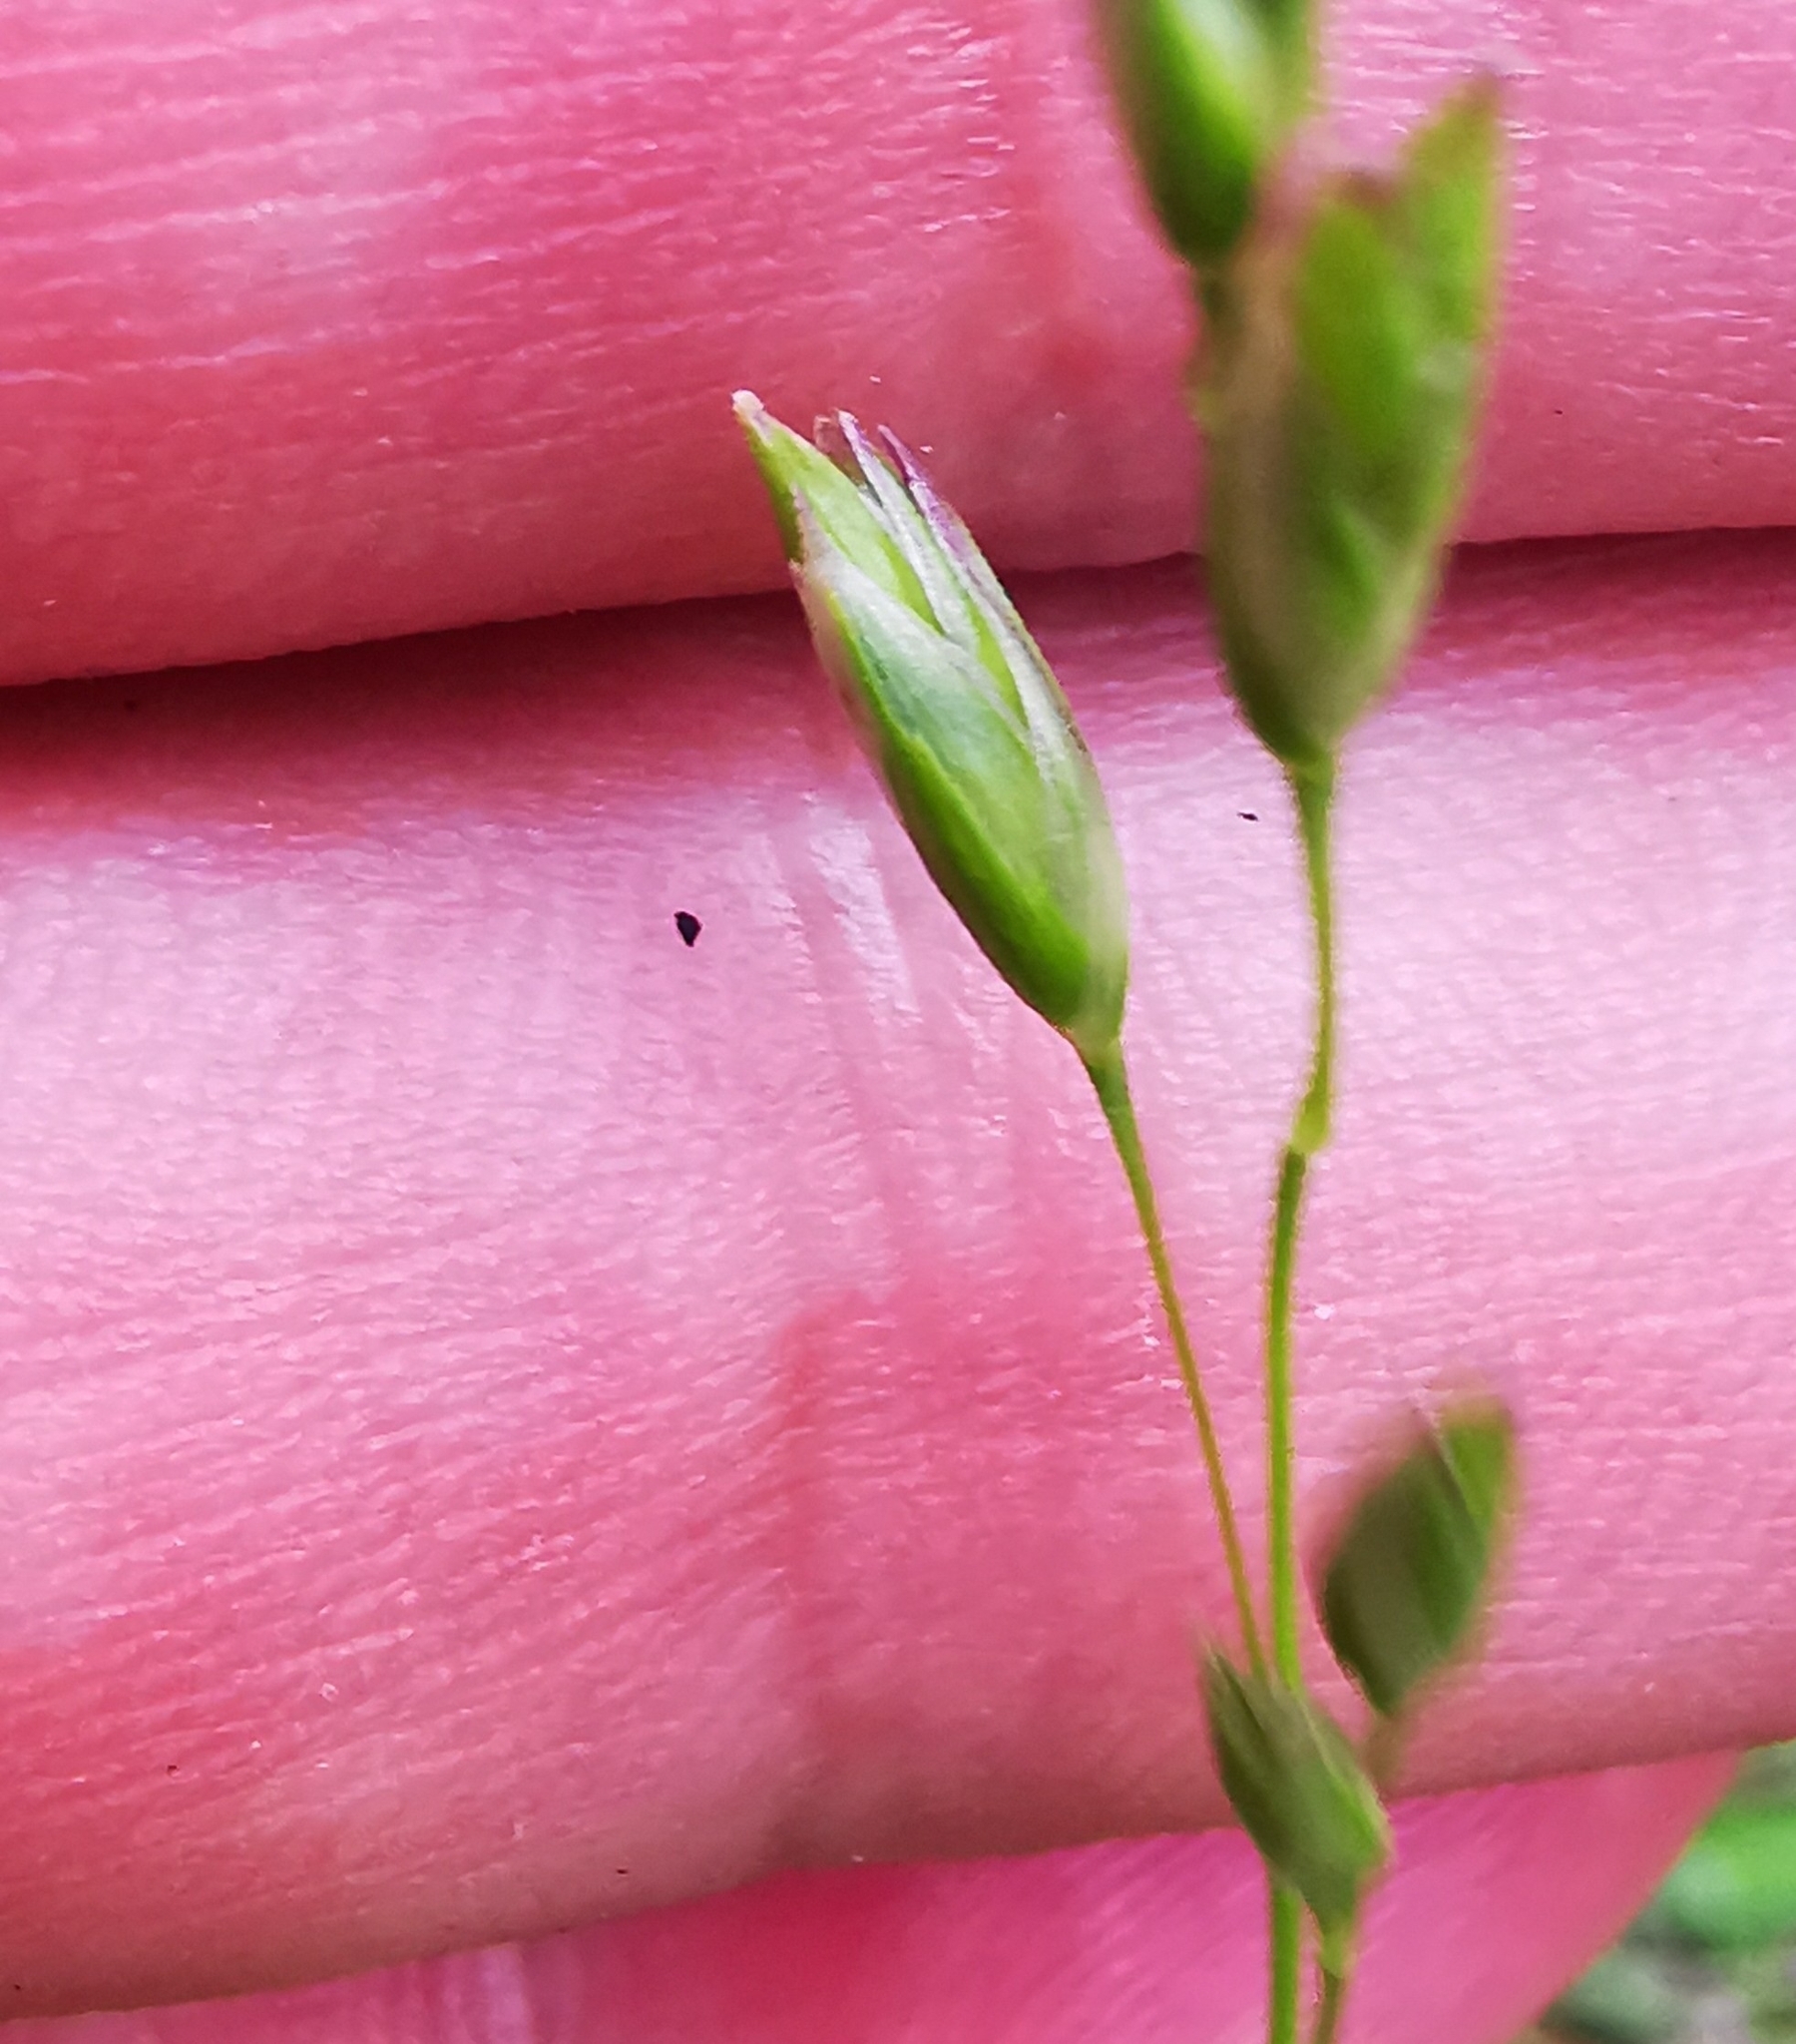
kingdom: Plantae
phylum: Tracheophyta
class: Liliopsida
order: Poales
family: Poaceae
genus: Danthonia
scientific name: Danthonia decumbens
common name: Common heathgrass
